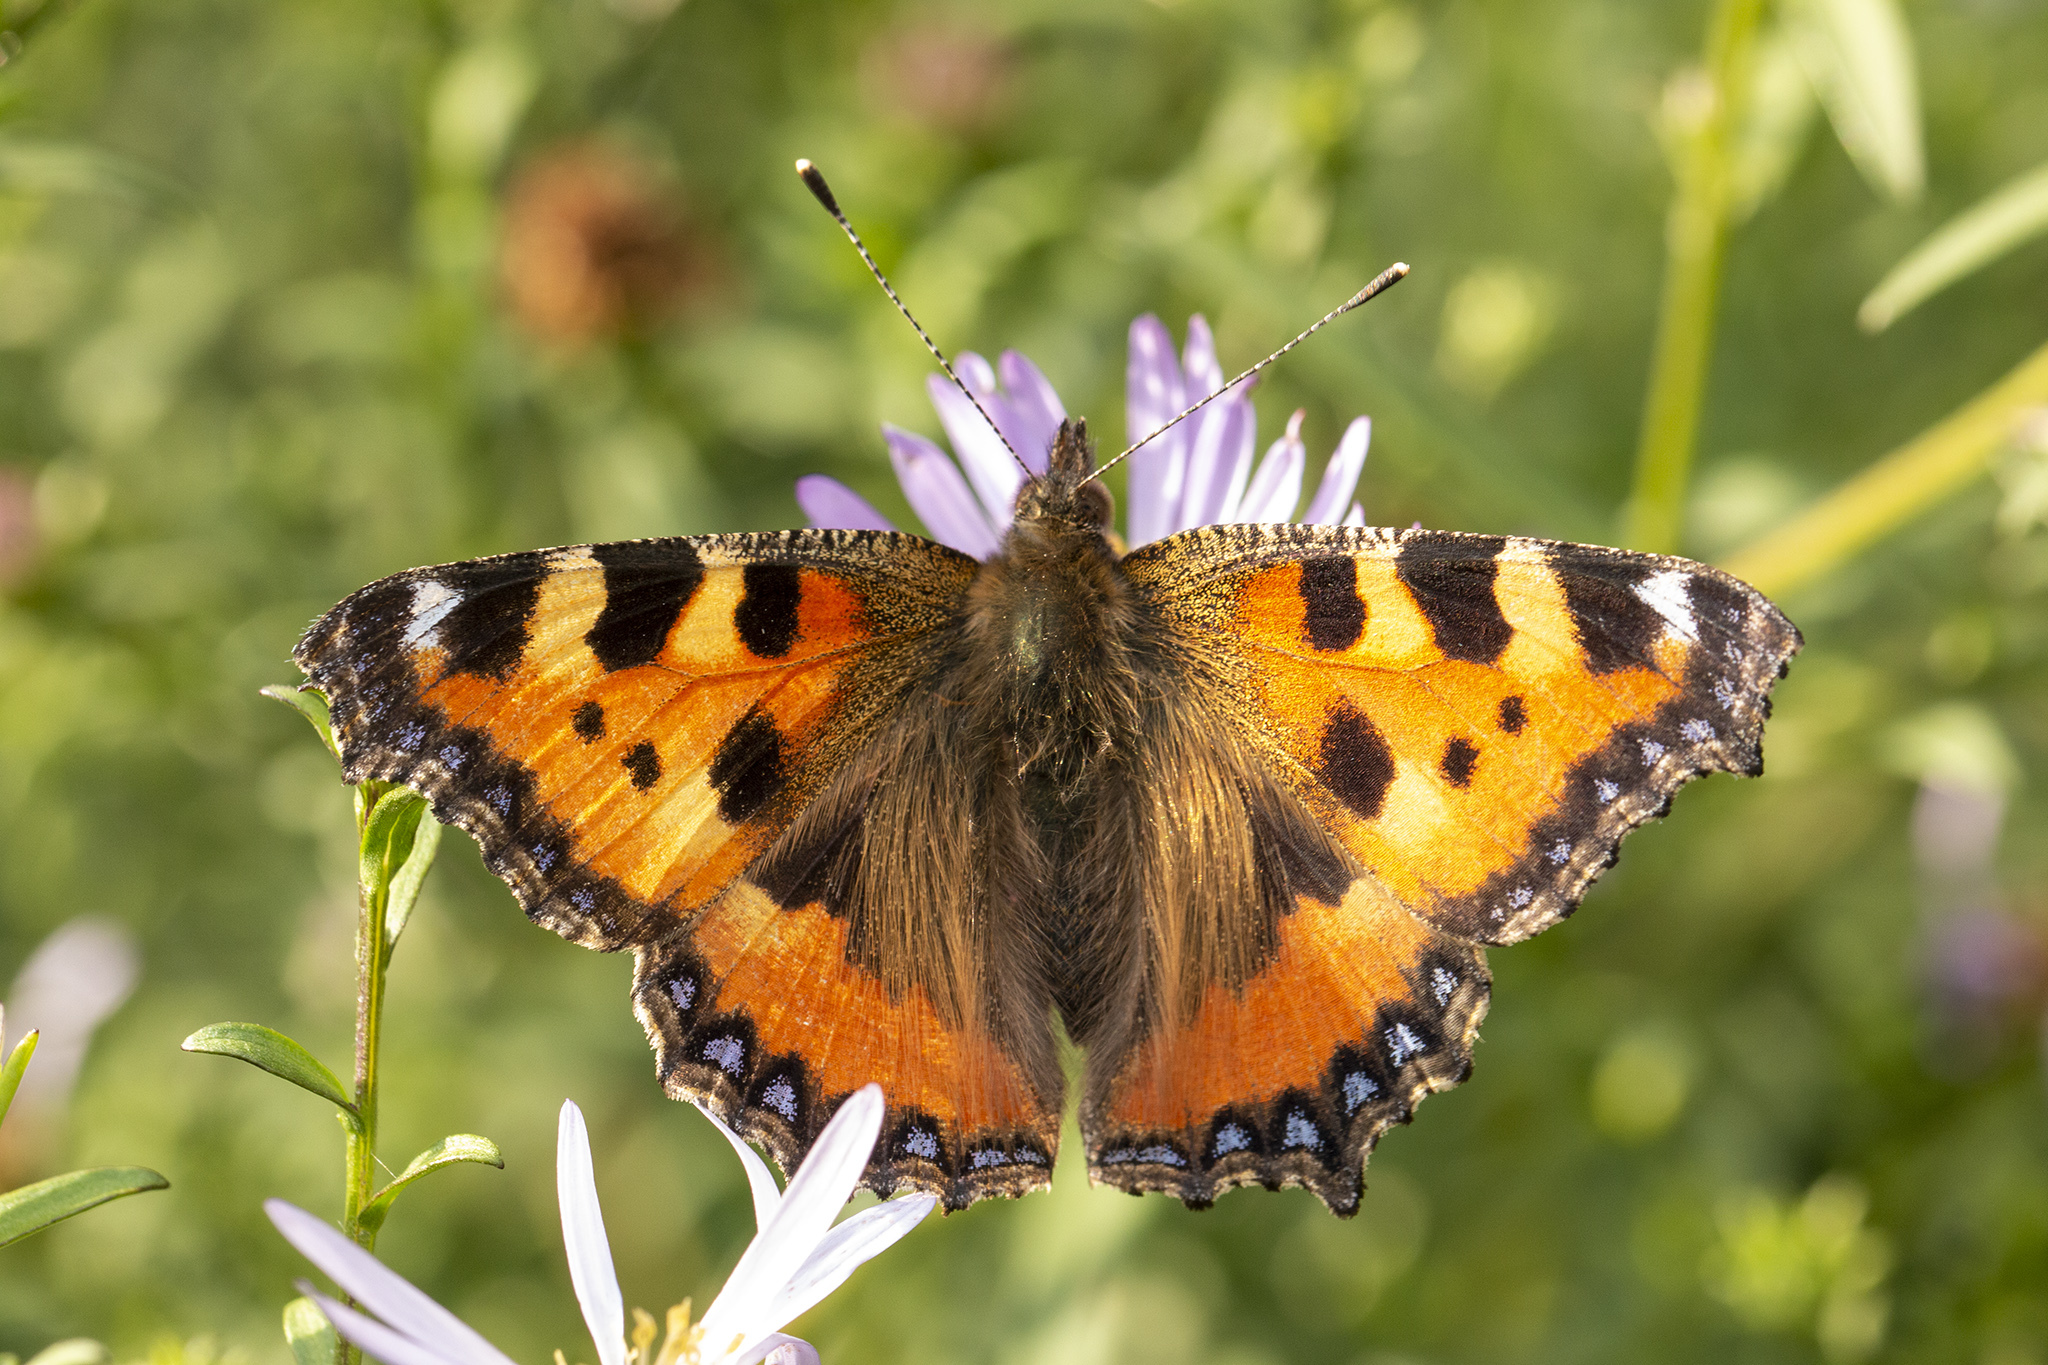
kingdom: Animalia
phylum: Arthropoda
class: Insecta
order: Lepidoptera
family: Nymphalidae
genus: Aglais
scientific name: Aglais urticae
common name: Small tortoiseshell
